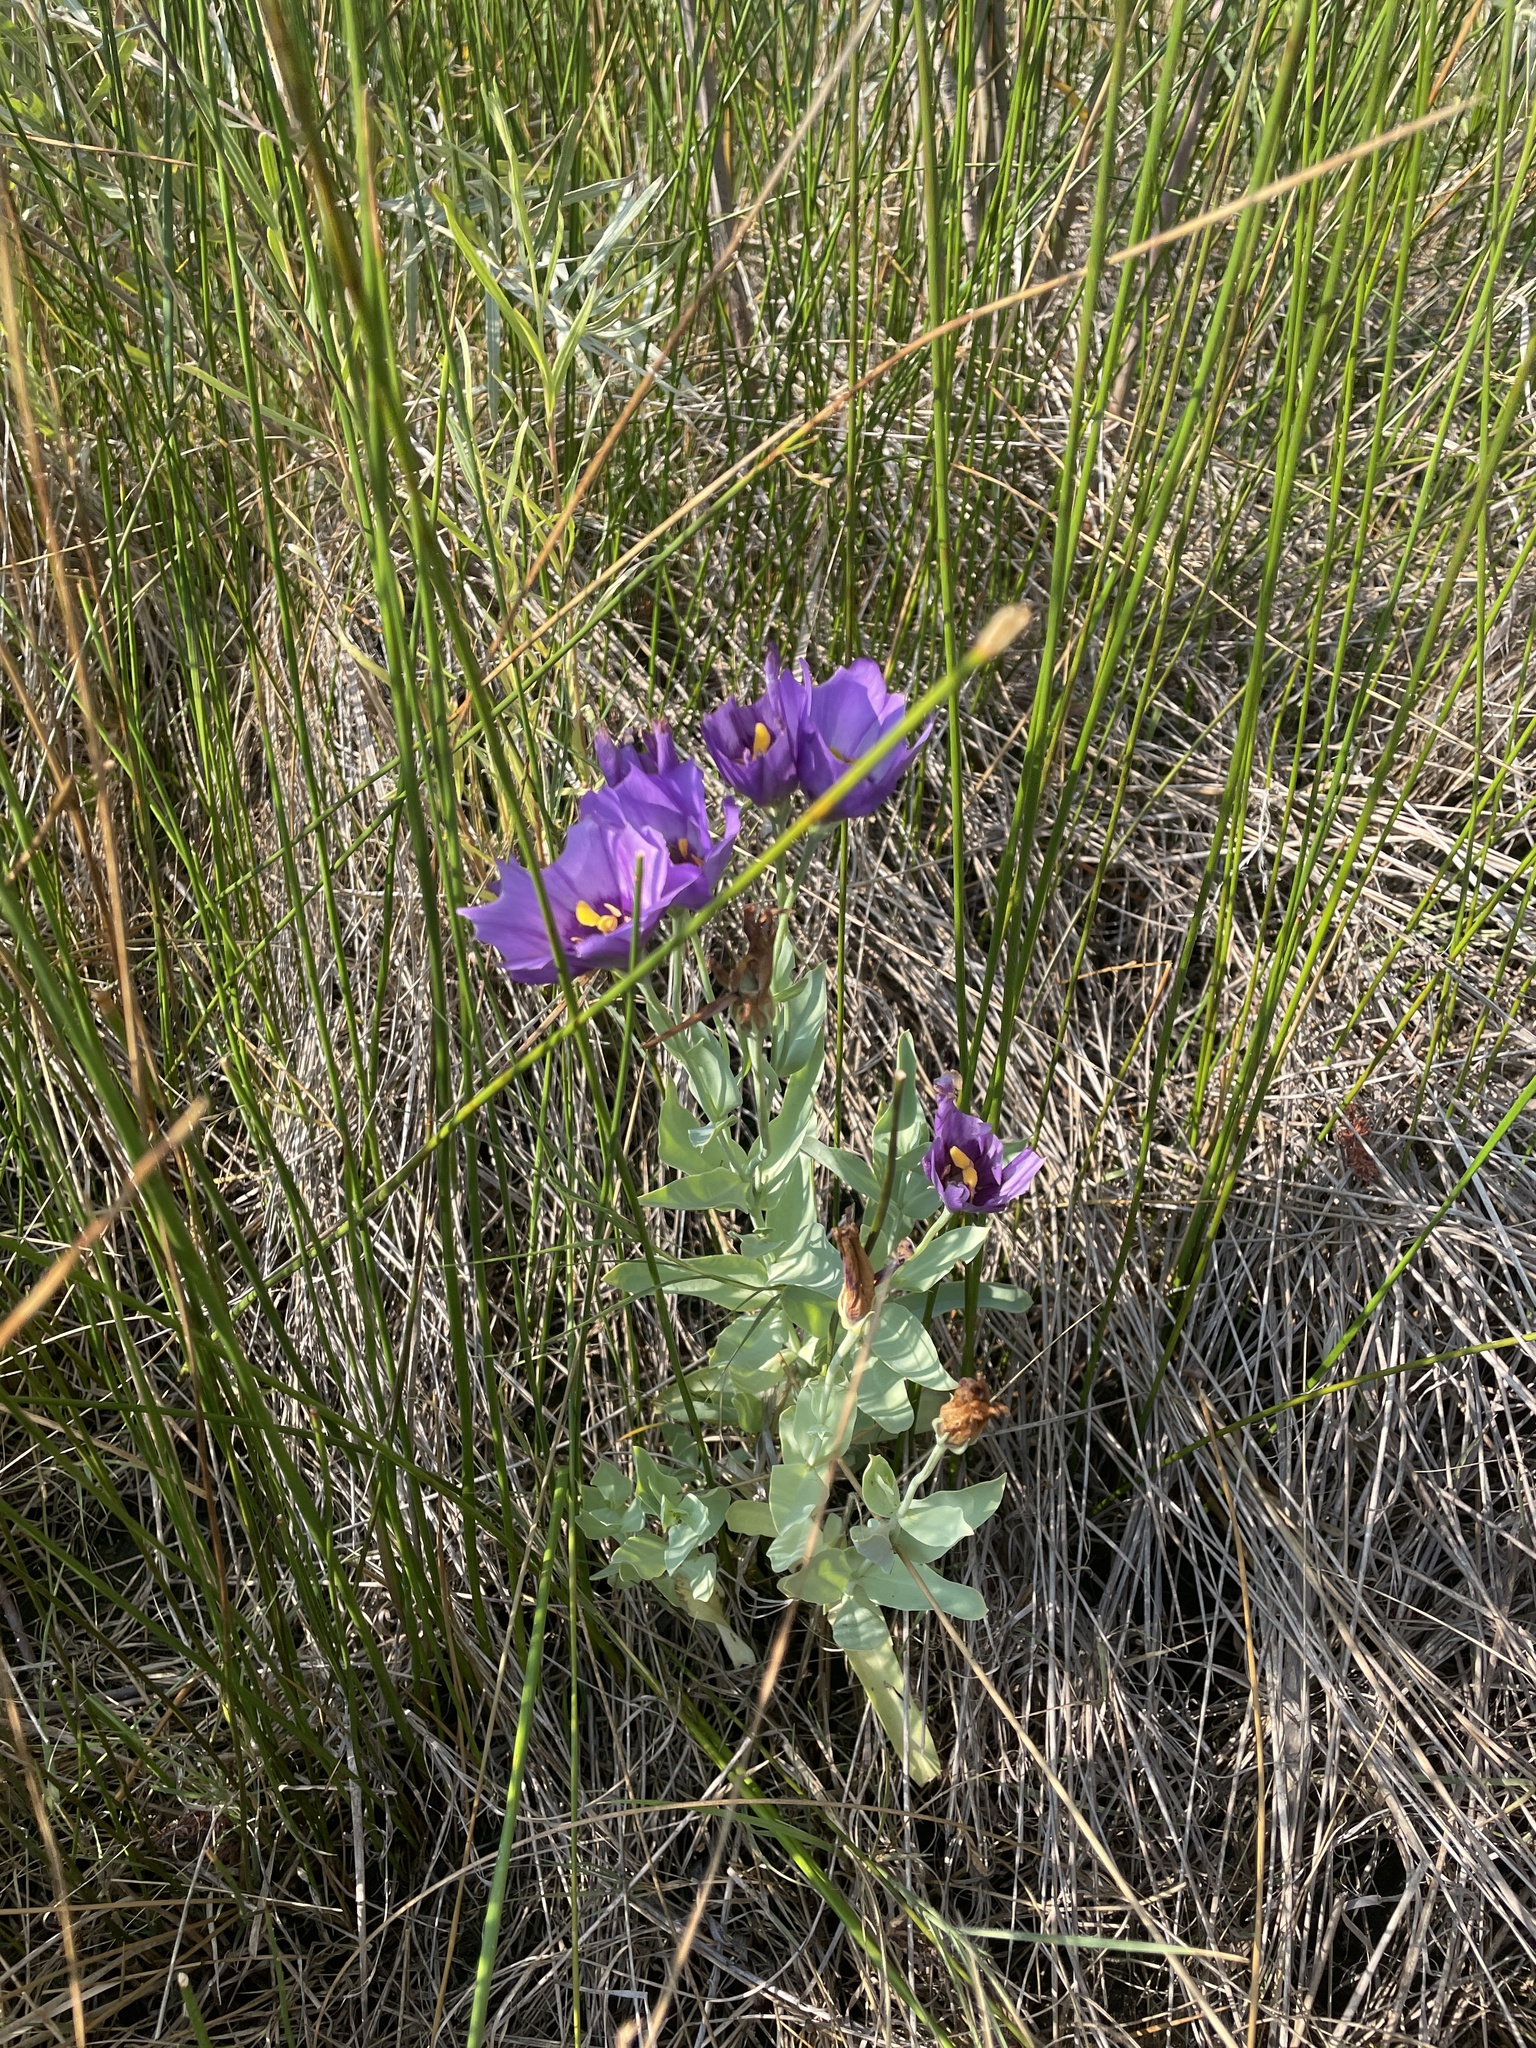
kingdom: Plantae
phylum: Tracheophyta
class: Magnoliopsida
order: Gentianales
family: Gentianaceae
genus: Eustoma
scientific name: Eustoma russellianum
